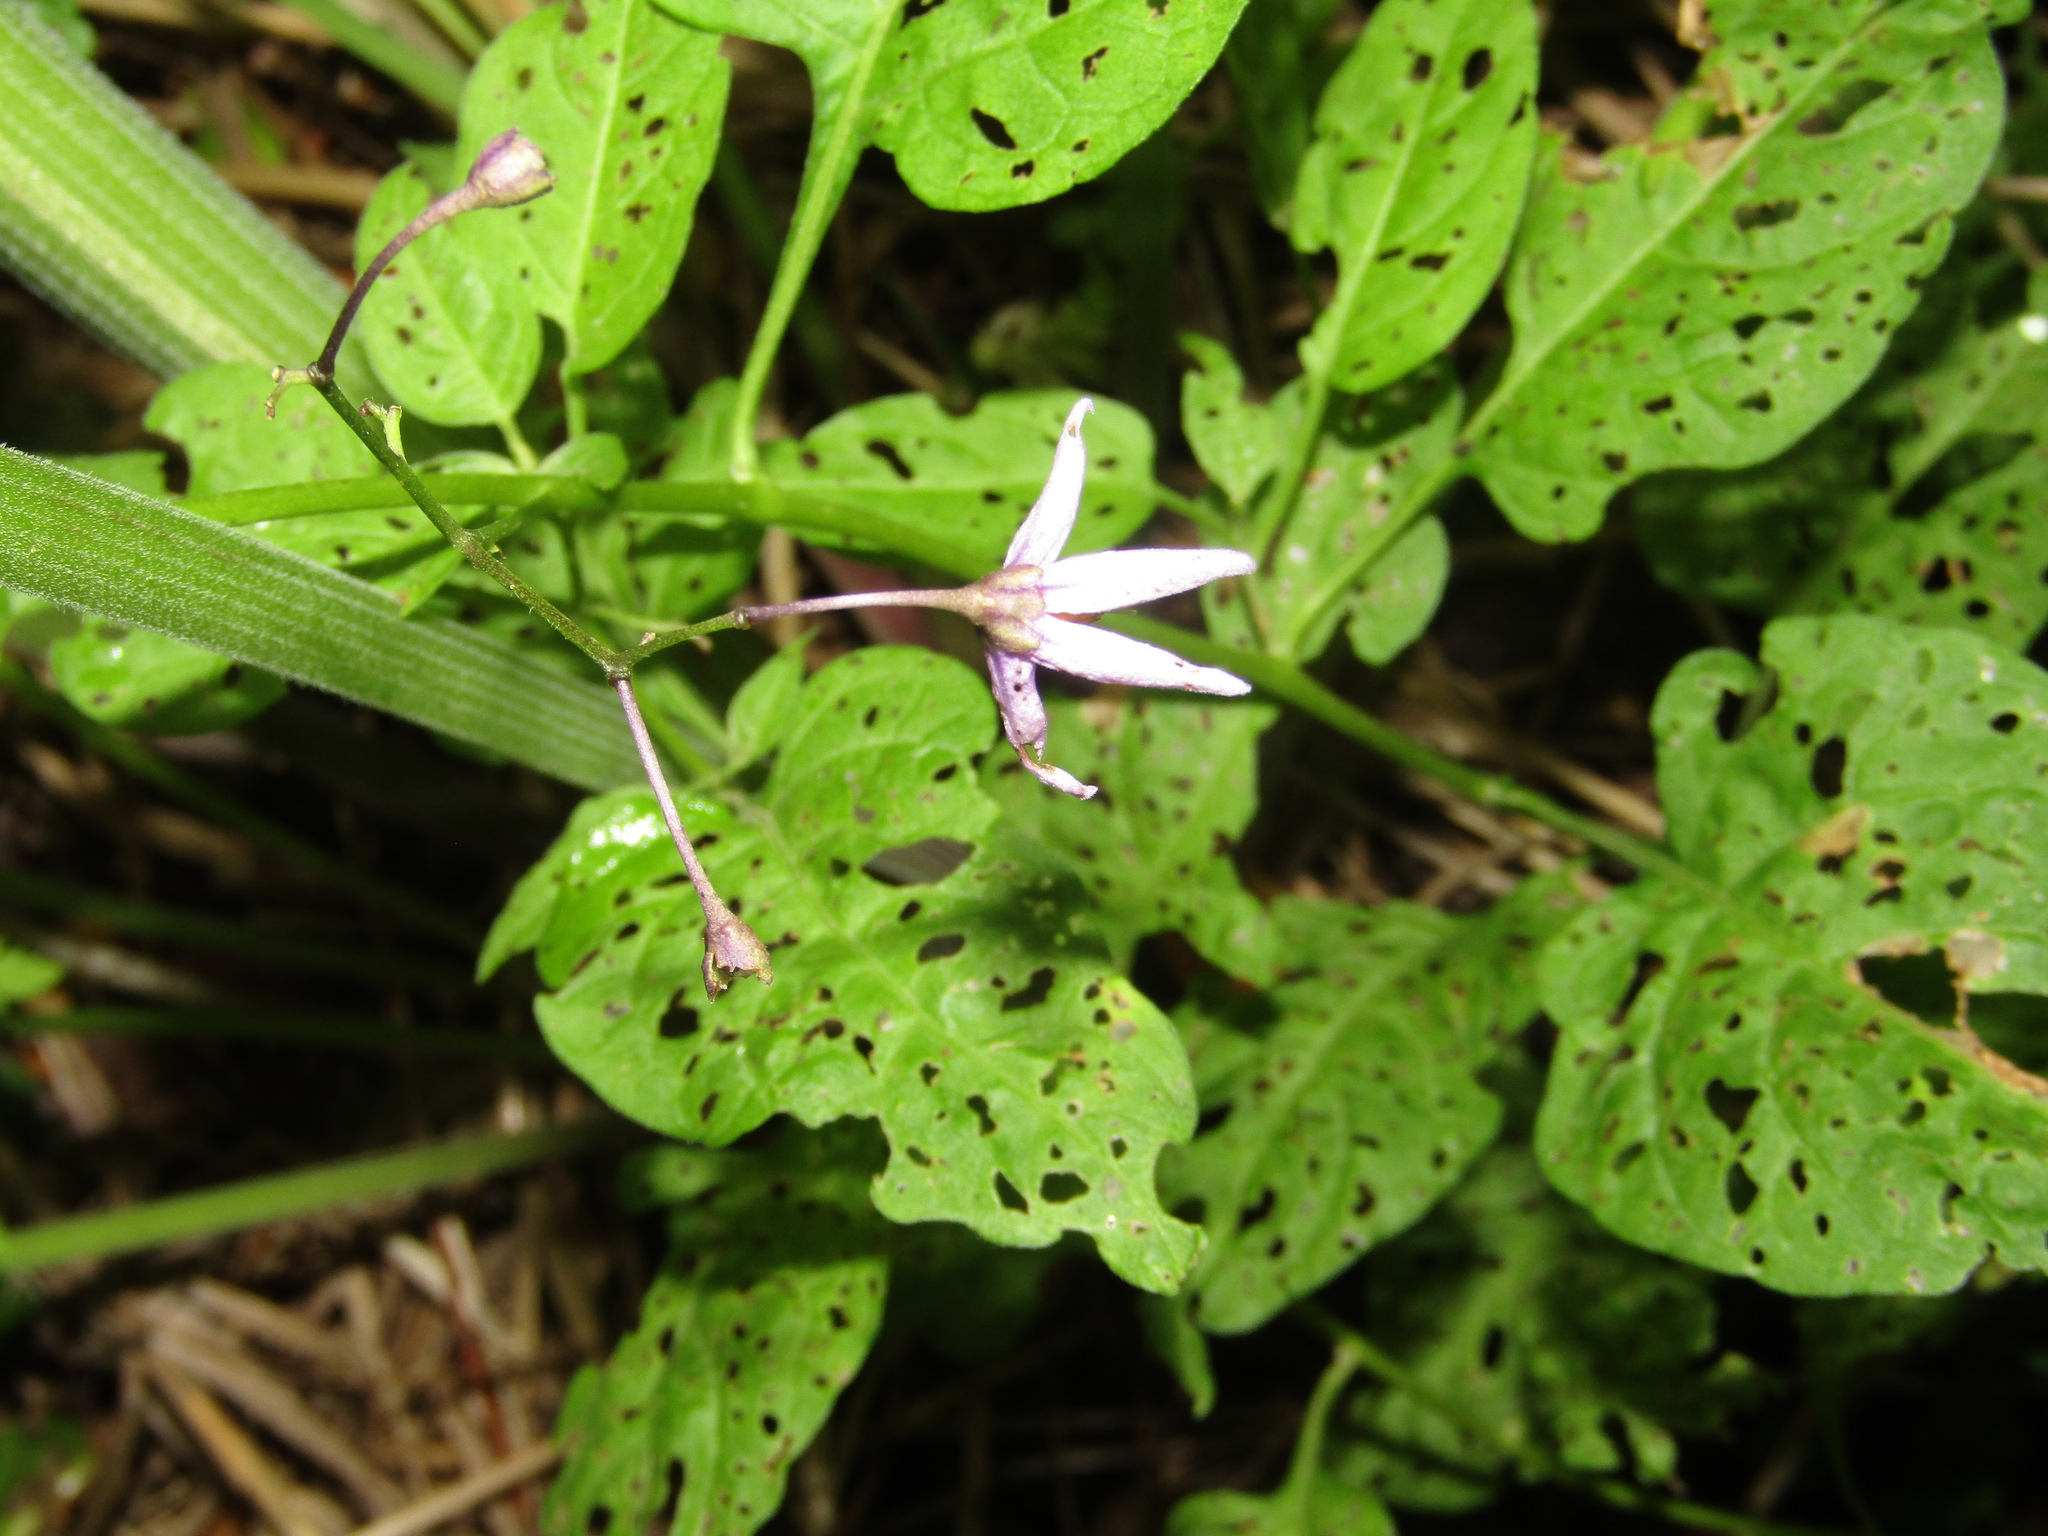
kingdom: Plantae
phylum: Tracheophyta
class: Magnoliopsida
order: Solanales
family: Solanaceae
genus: Solanum
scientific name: Solanum dulcamara
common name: Climbing nightshade
